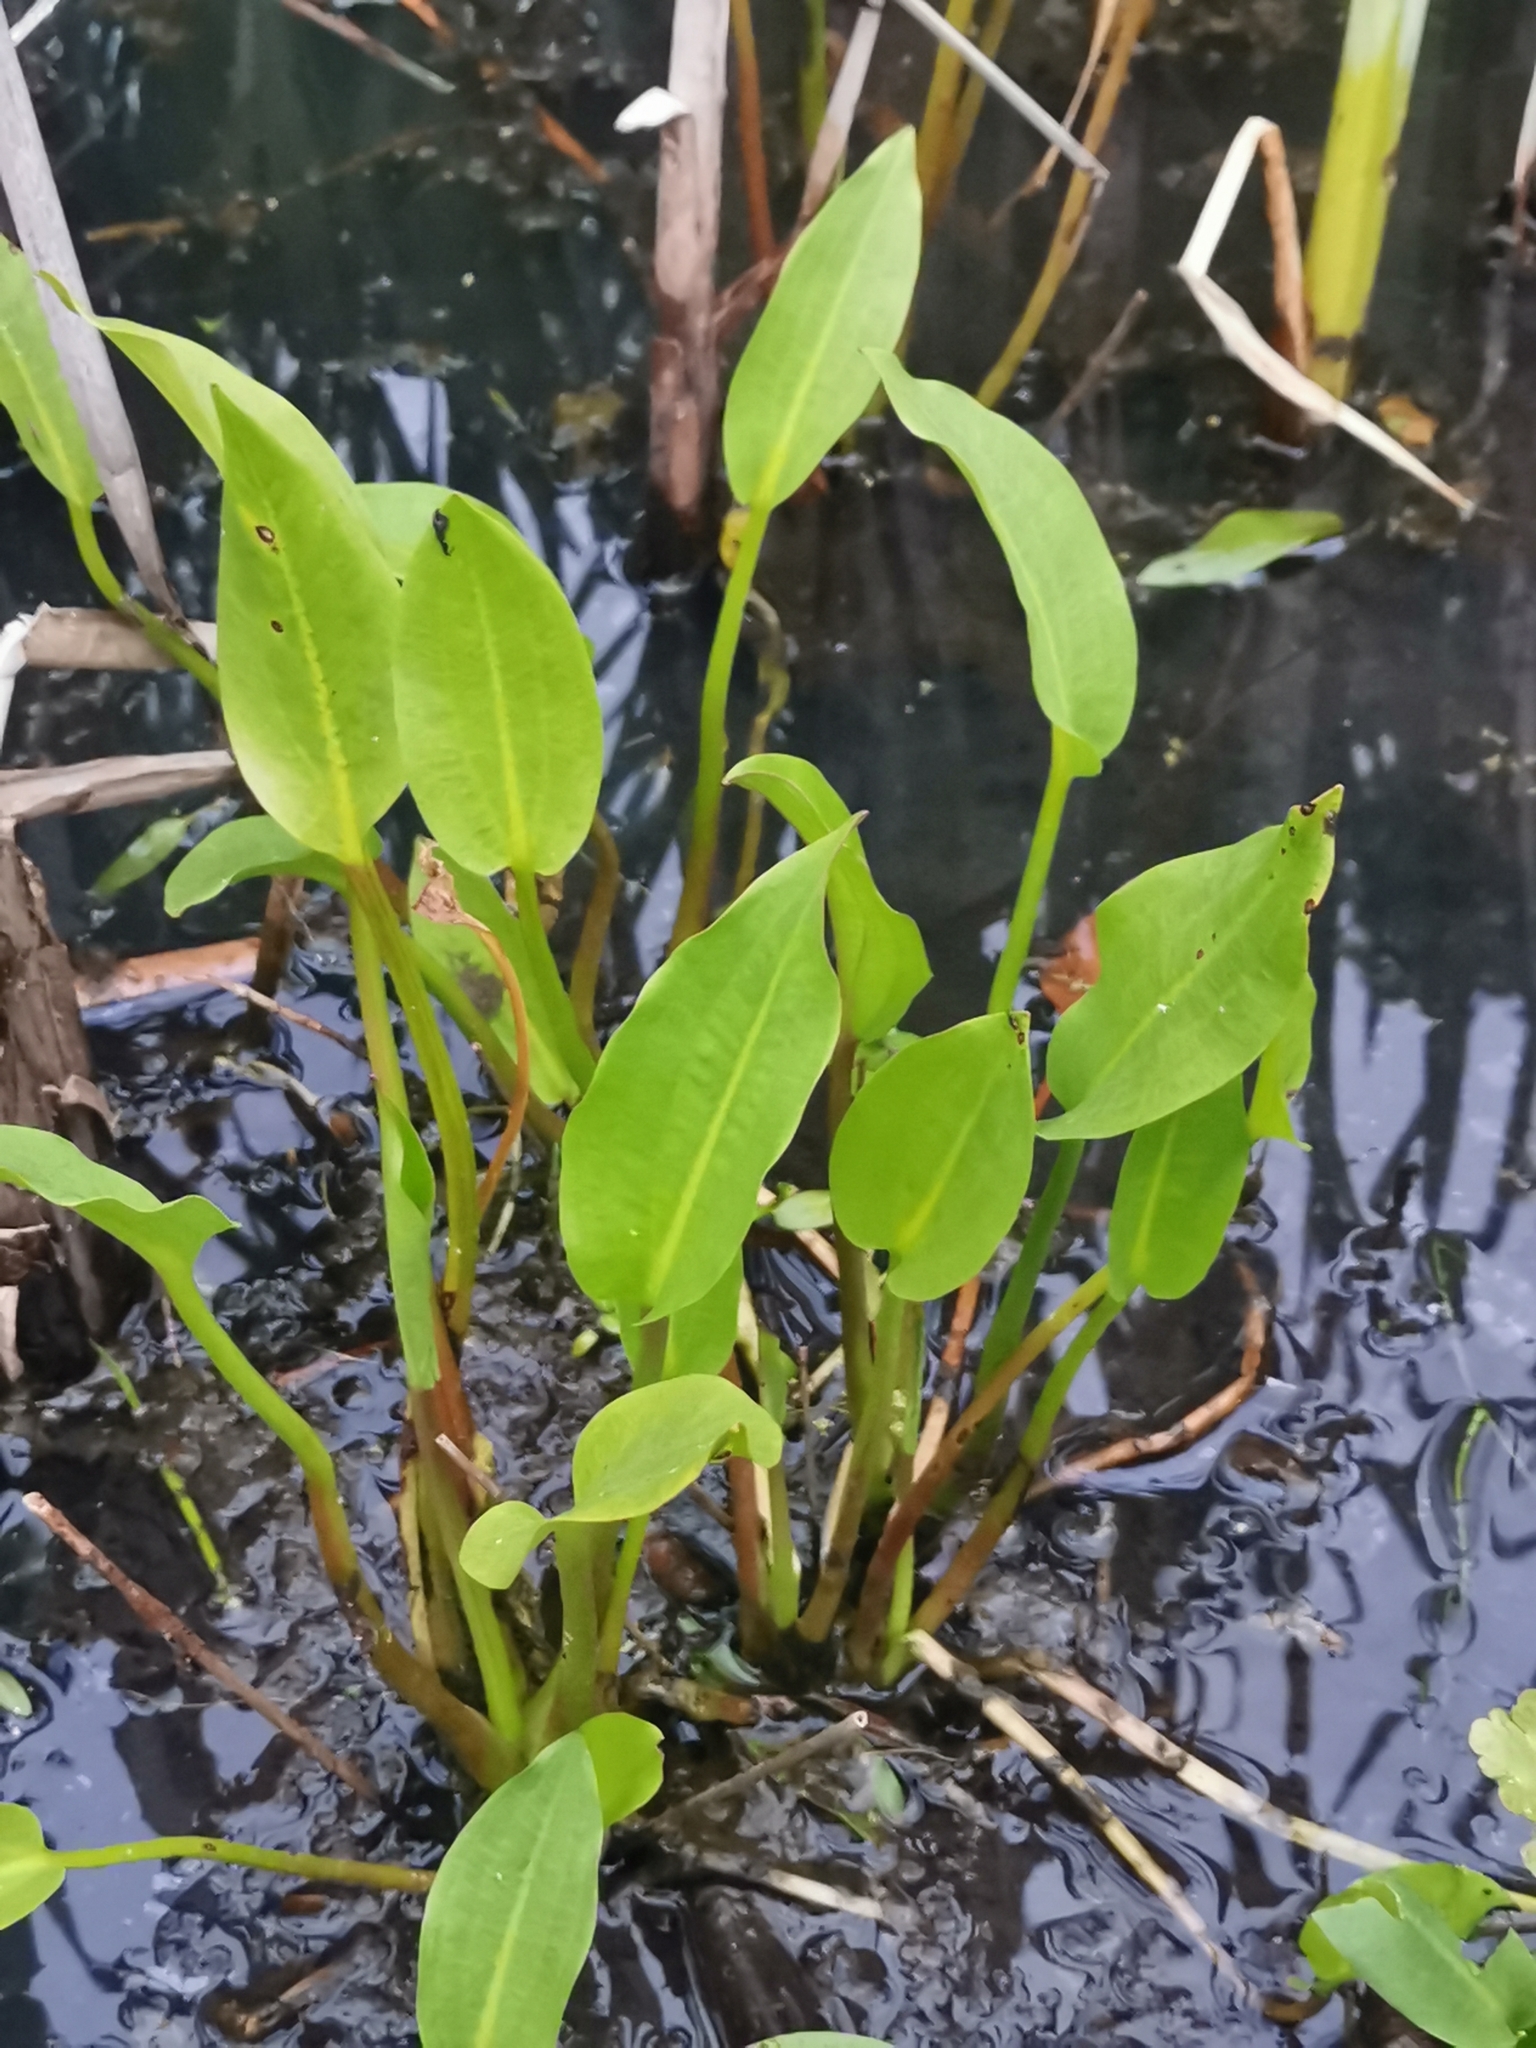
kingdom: Plantae
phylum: Tracheophyta
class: Liliopsida
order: Alismatales
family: Alismataceae
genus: Alisma
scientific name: Alisma plantago-aquatica
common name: Water-plantain
